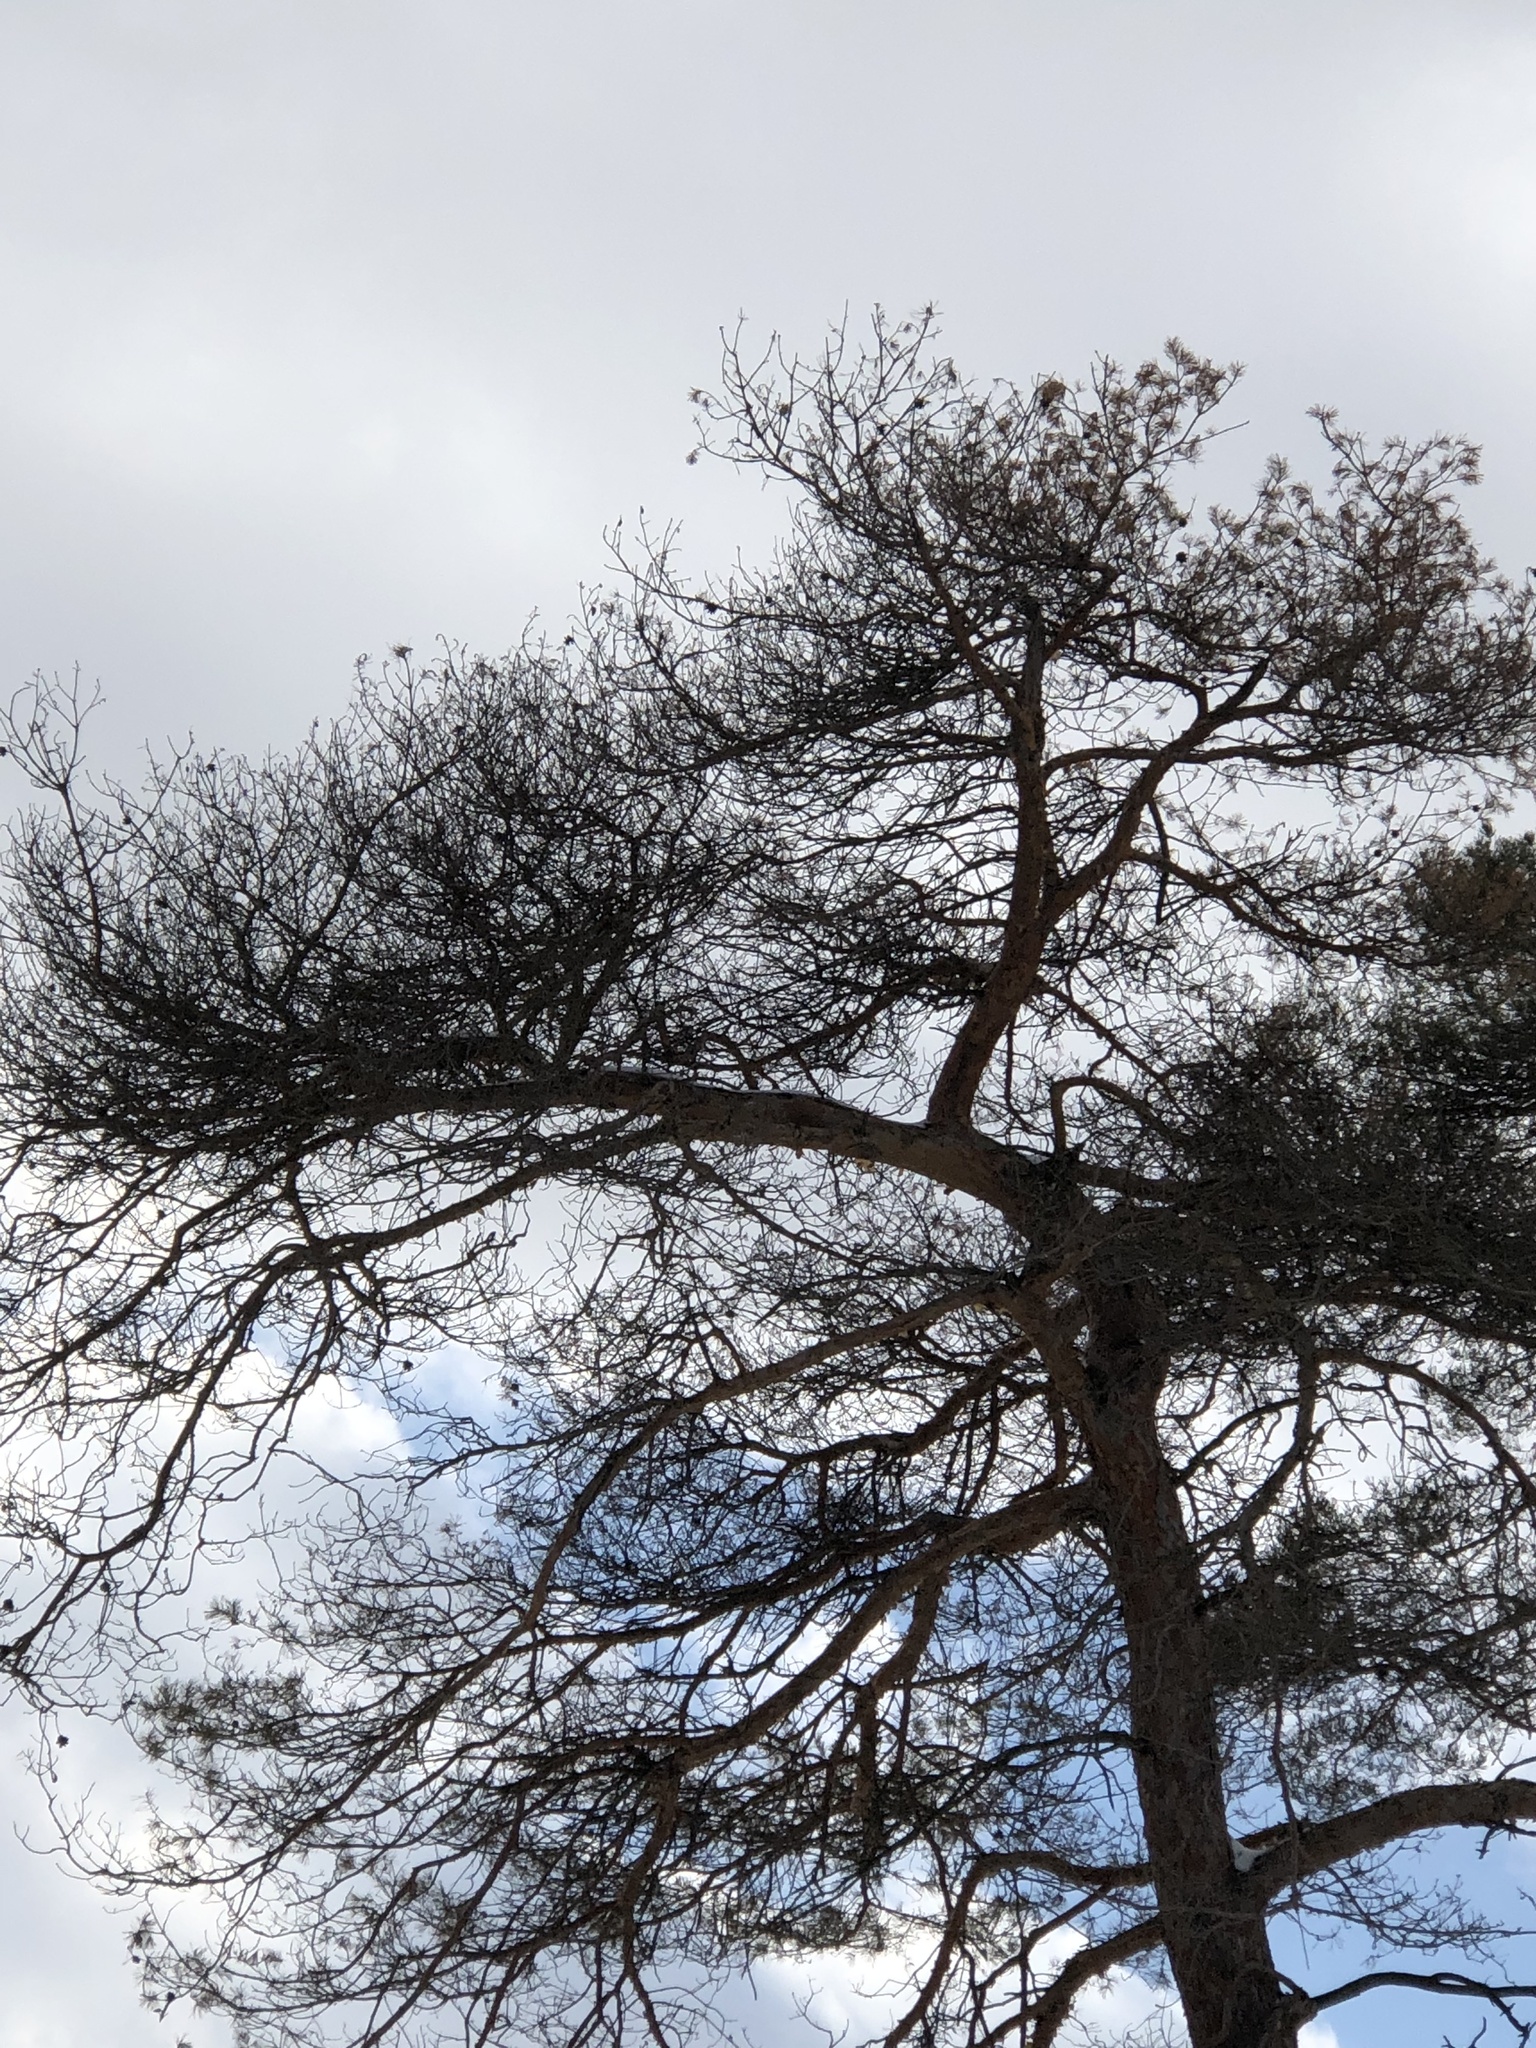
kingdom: Plantae
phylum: Tracheophyta
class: Pinopsida
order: Pinales
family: Pinaceae
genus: Pinus
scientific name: Pinus sylvestris
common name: Scots pine
